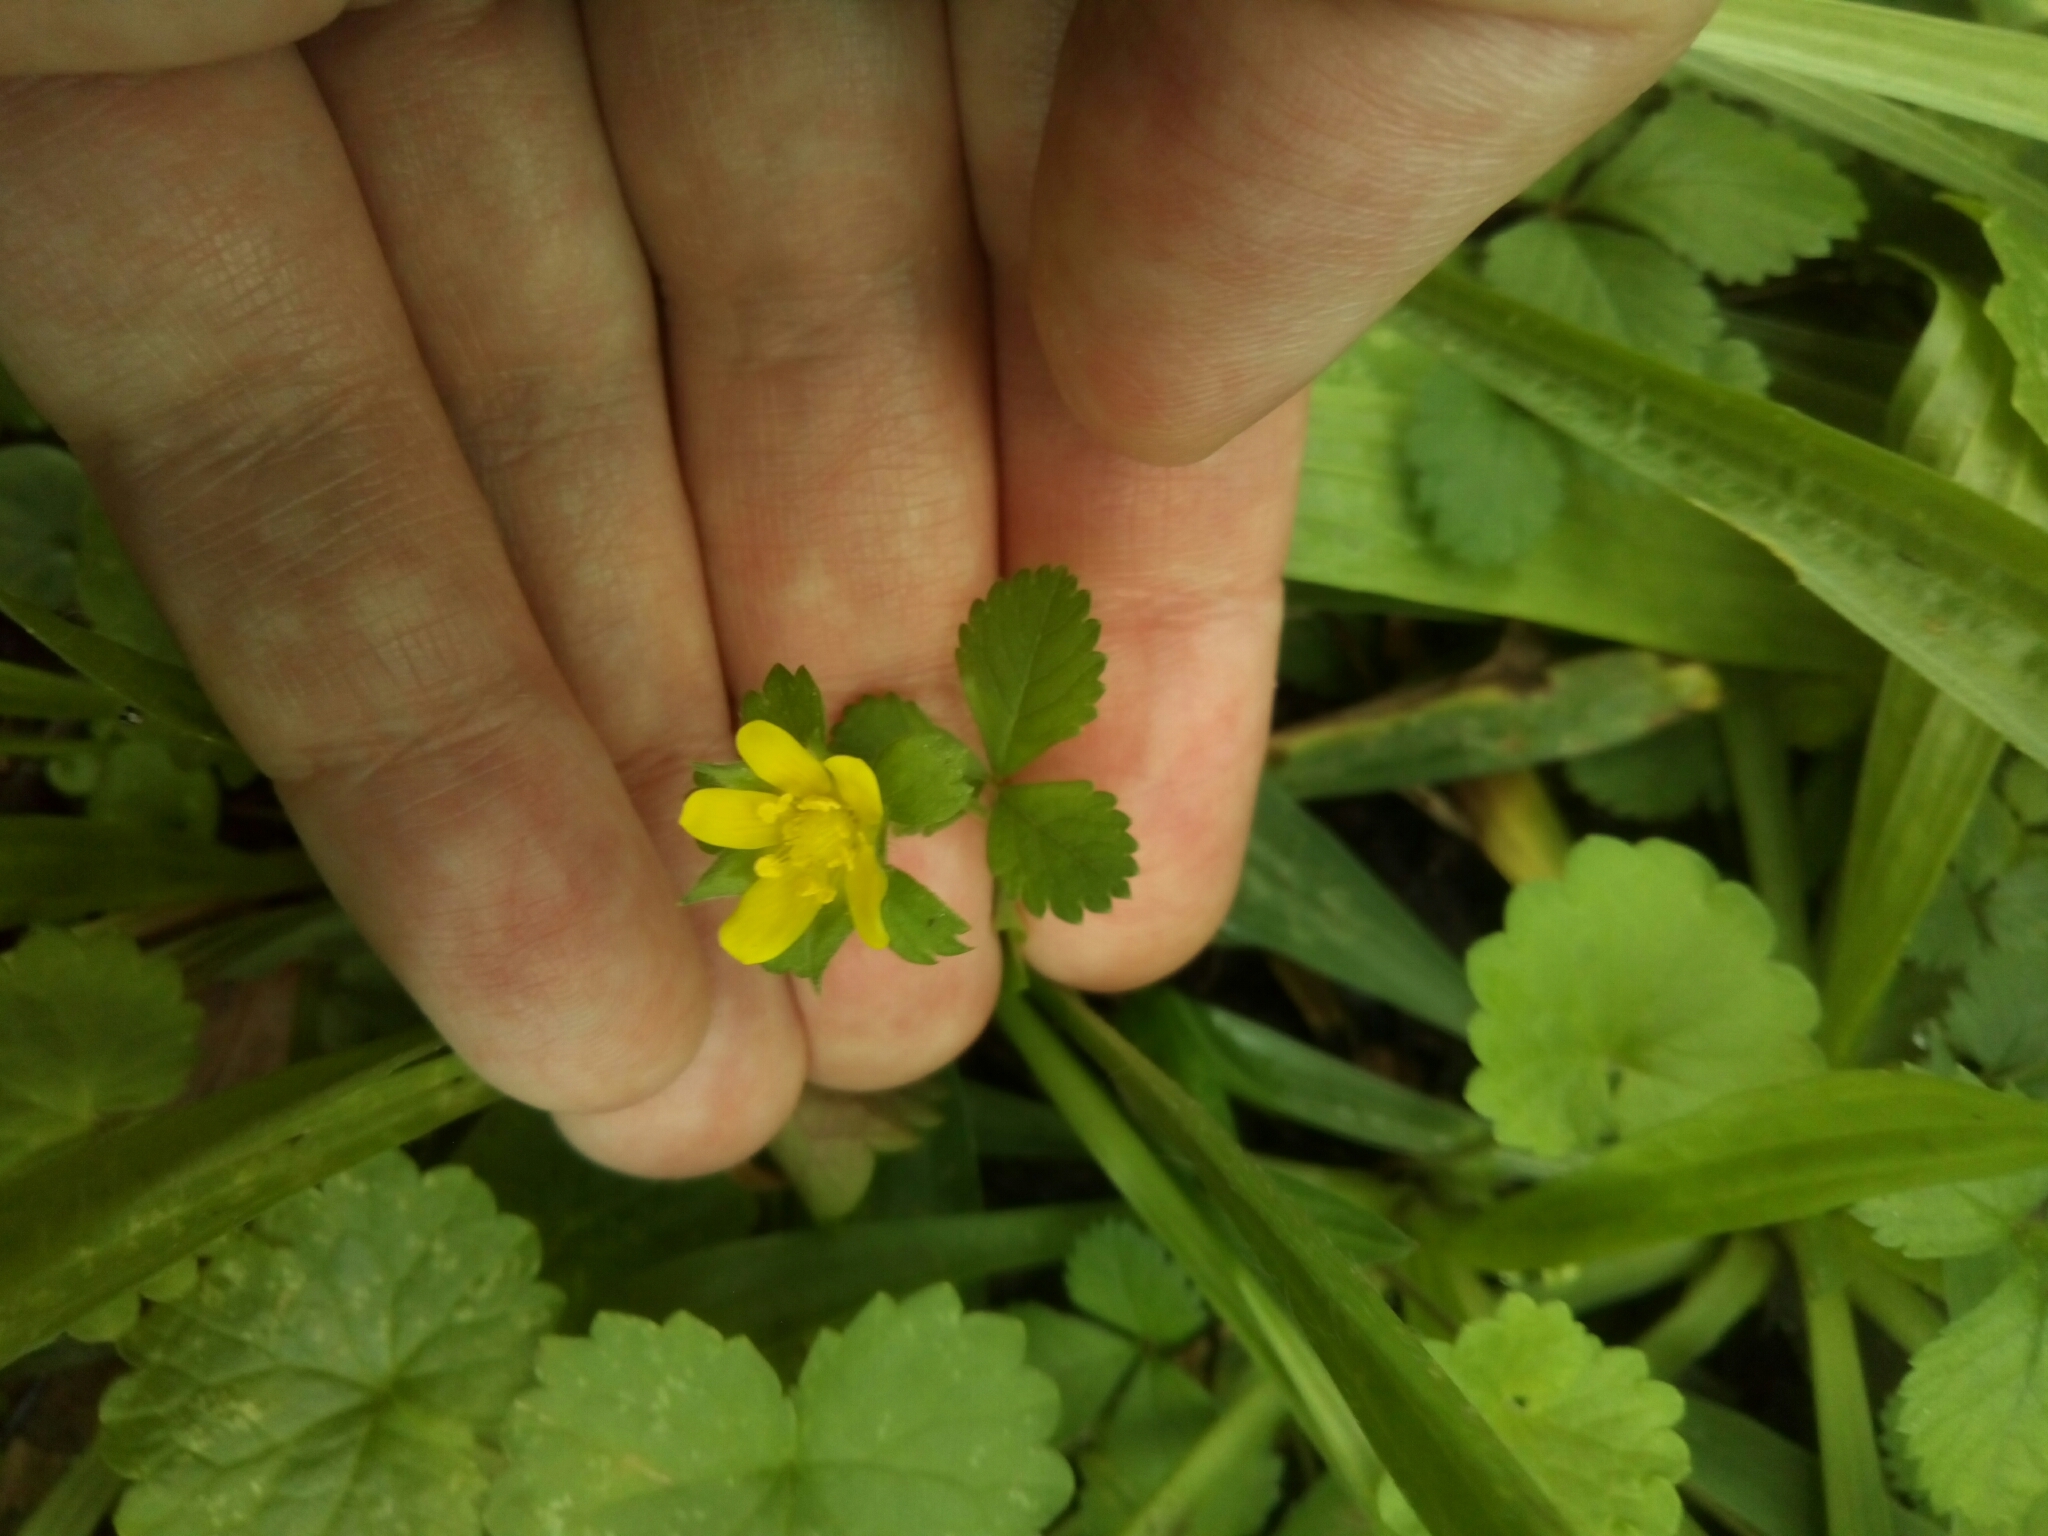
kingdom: Plantae
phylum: Tracheophyta
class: Magnoliopsida
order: Rosales
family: Rosaceae
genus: Potentilla
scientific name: Potentilla indica
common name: Yellow-flowered strawberry
